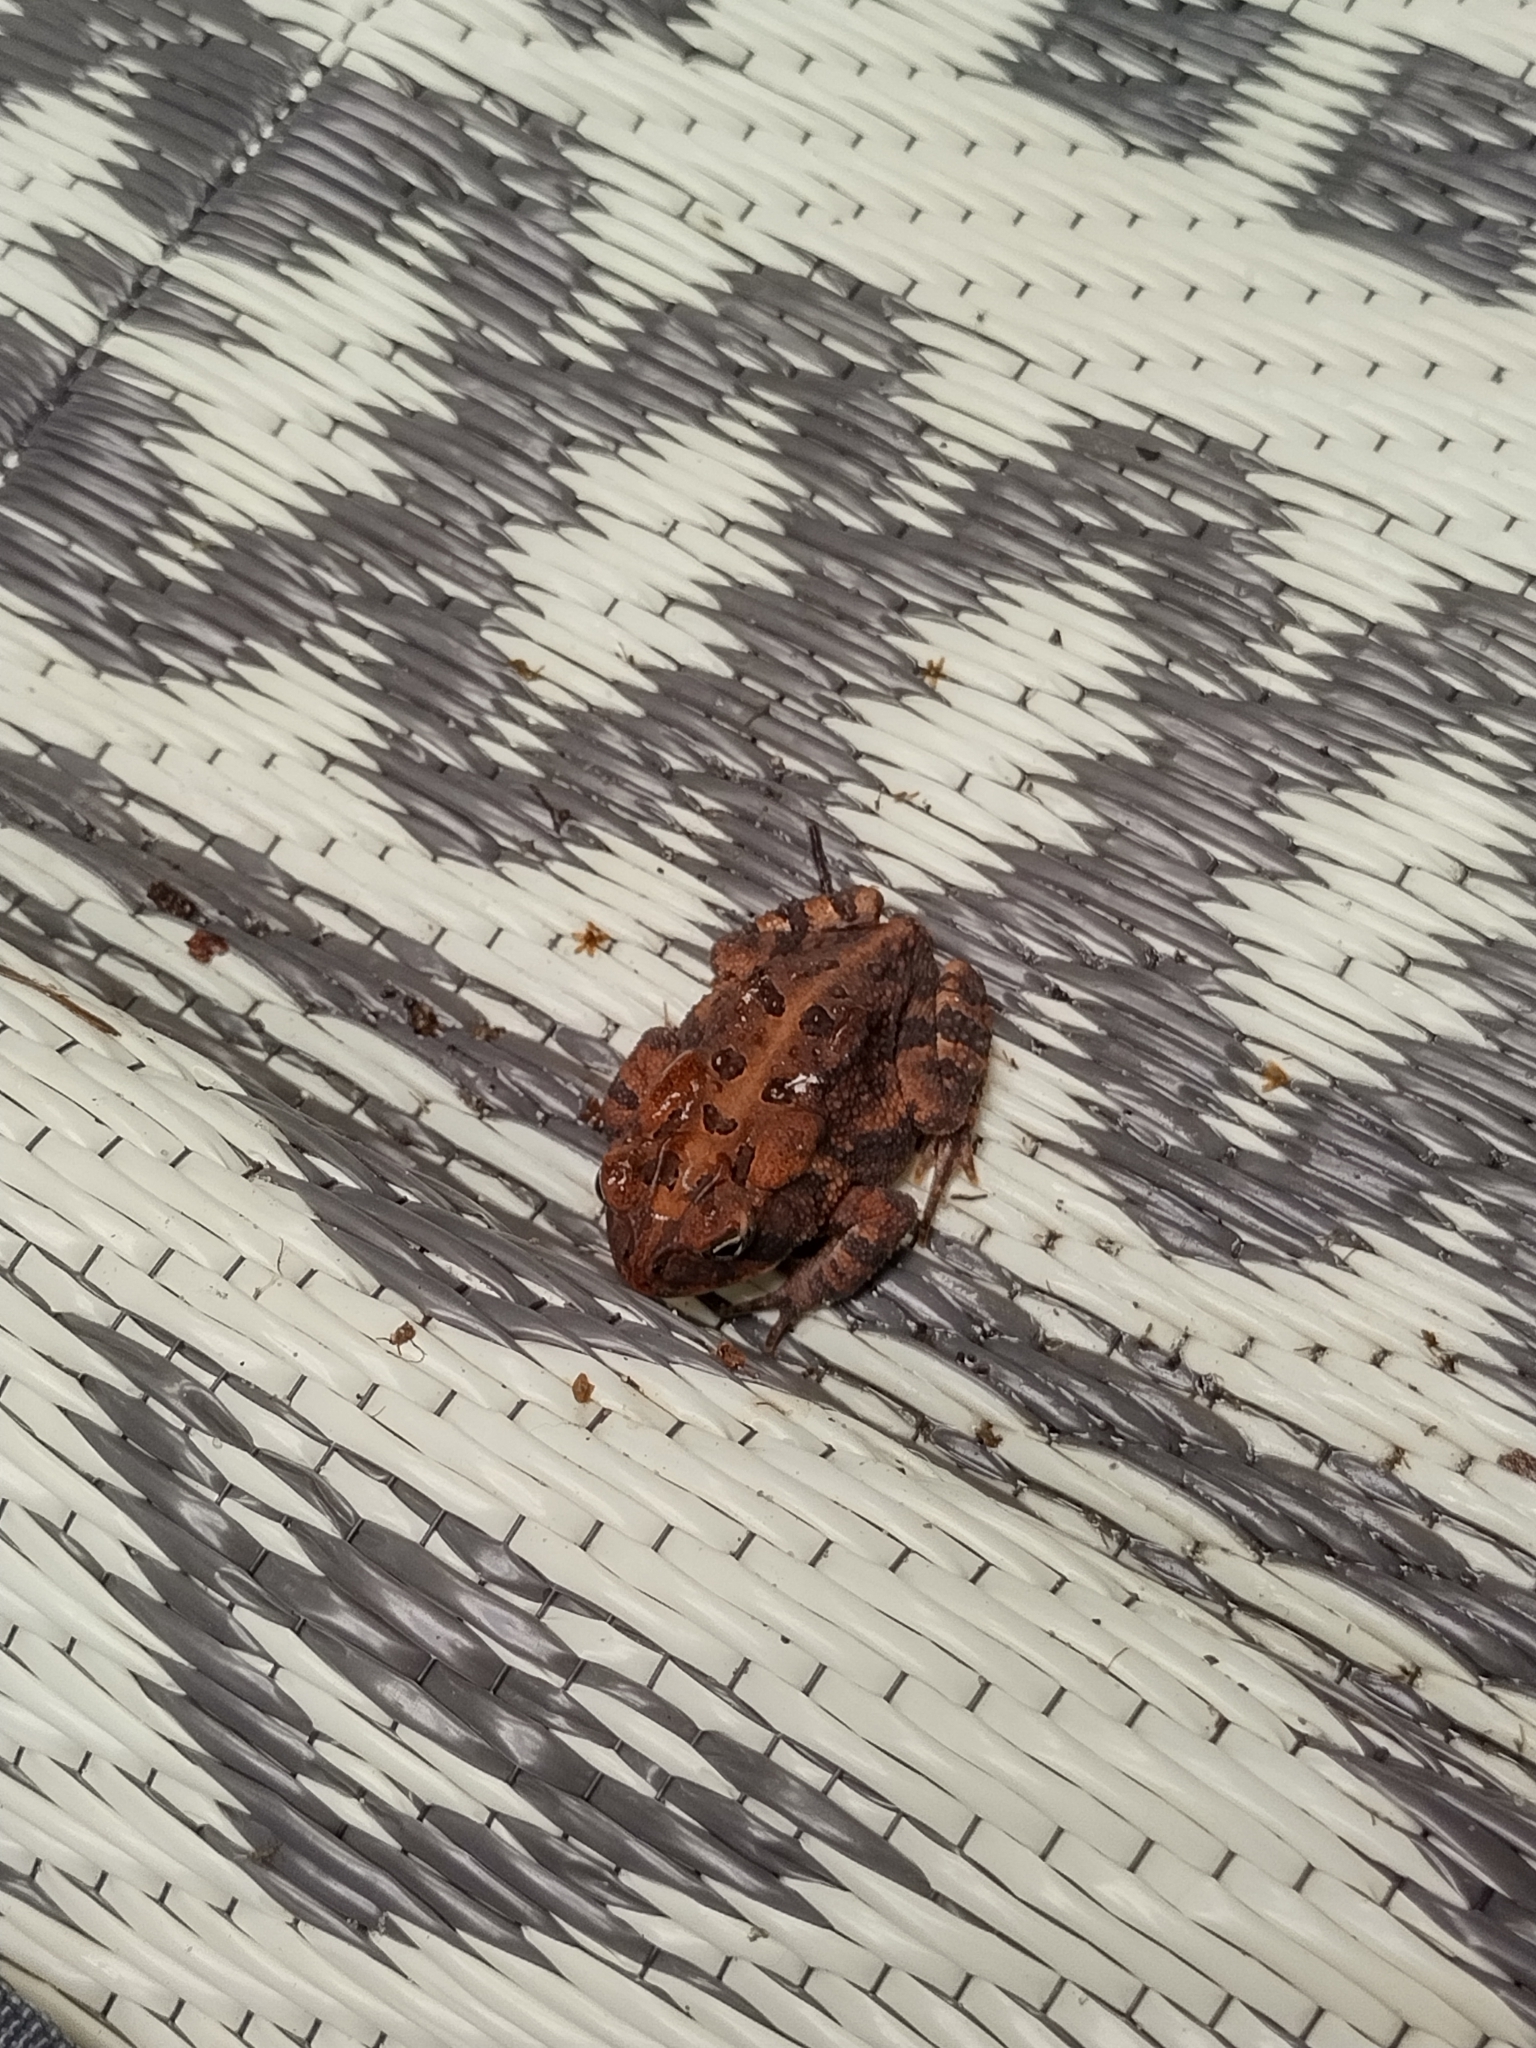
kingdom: Animalia
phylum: Chordata
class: Amphibia
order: Anura
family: Bufonidae
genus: Anaxyrus
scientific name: Anaxyrus terrestris
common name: Southern toad
